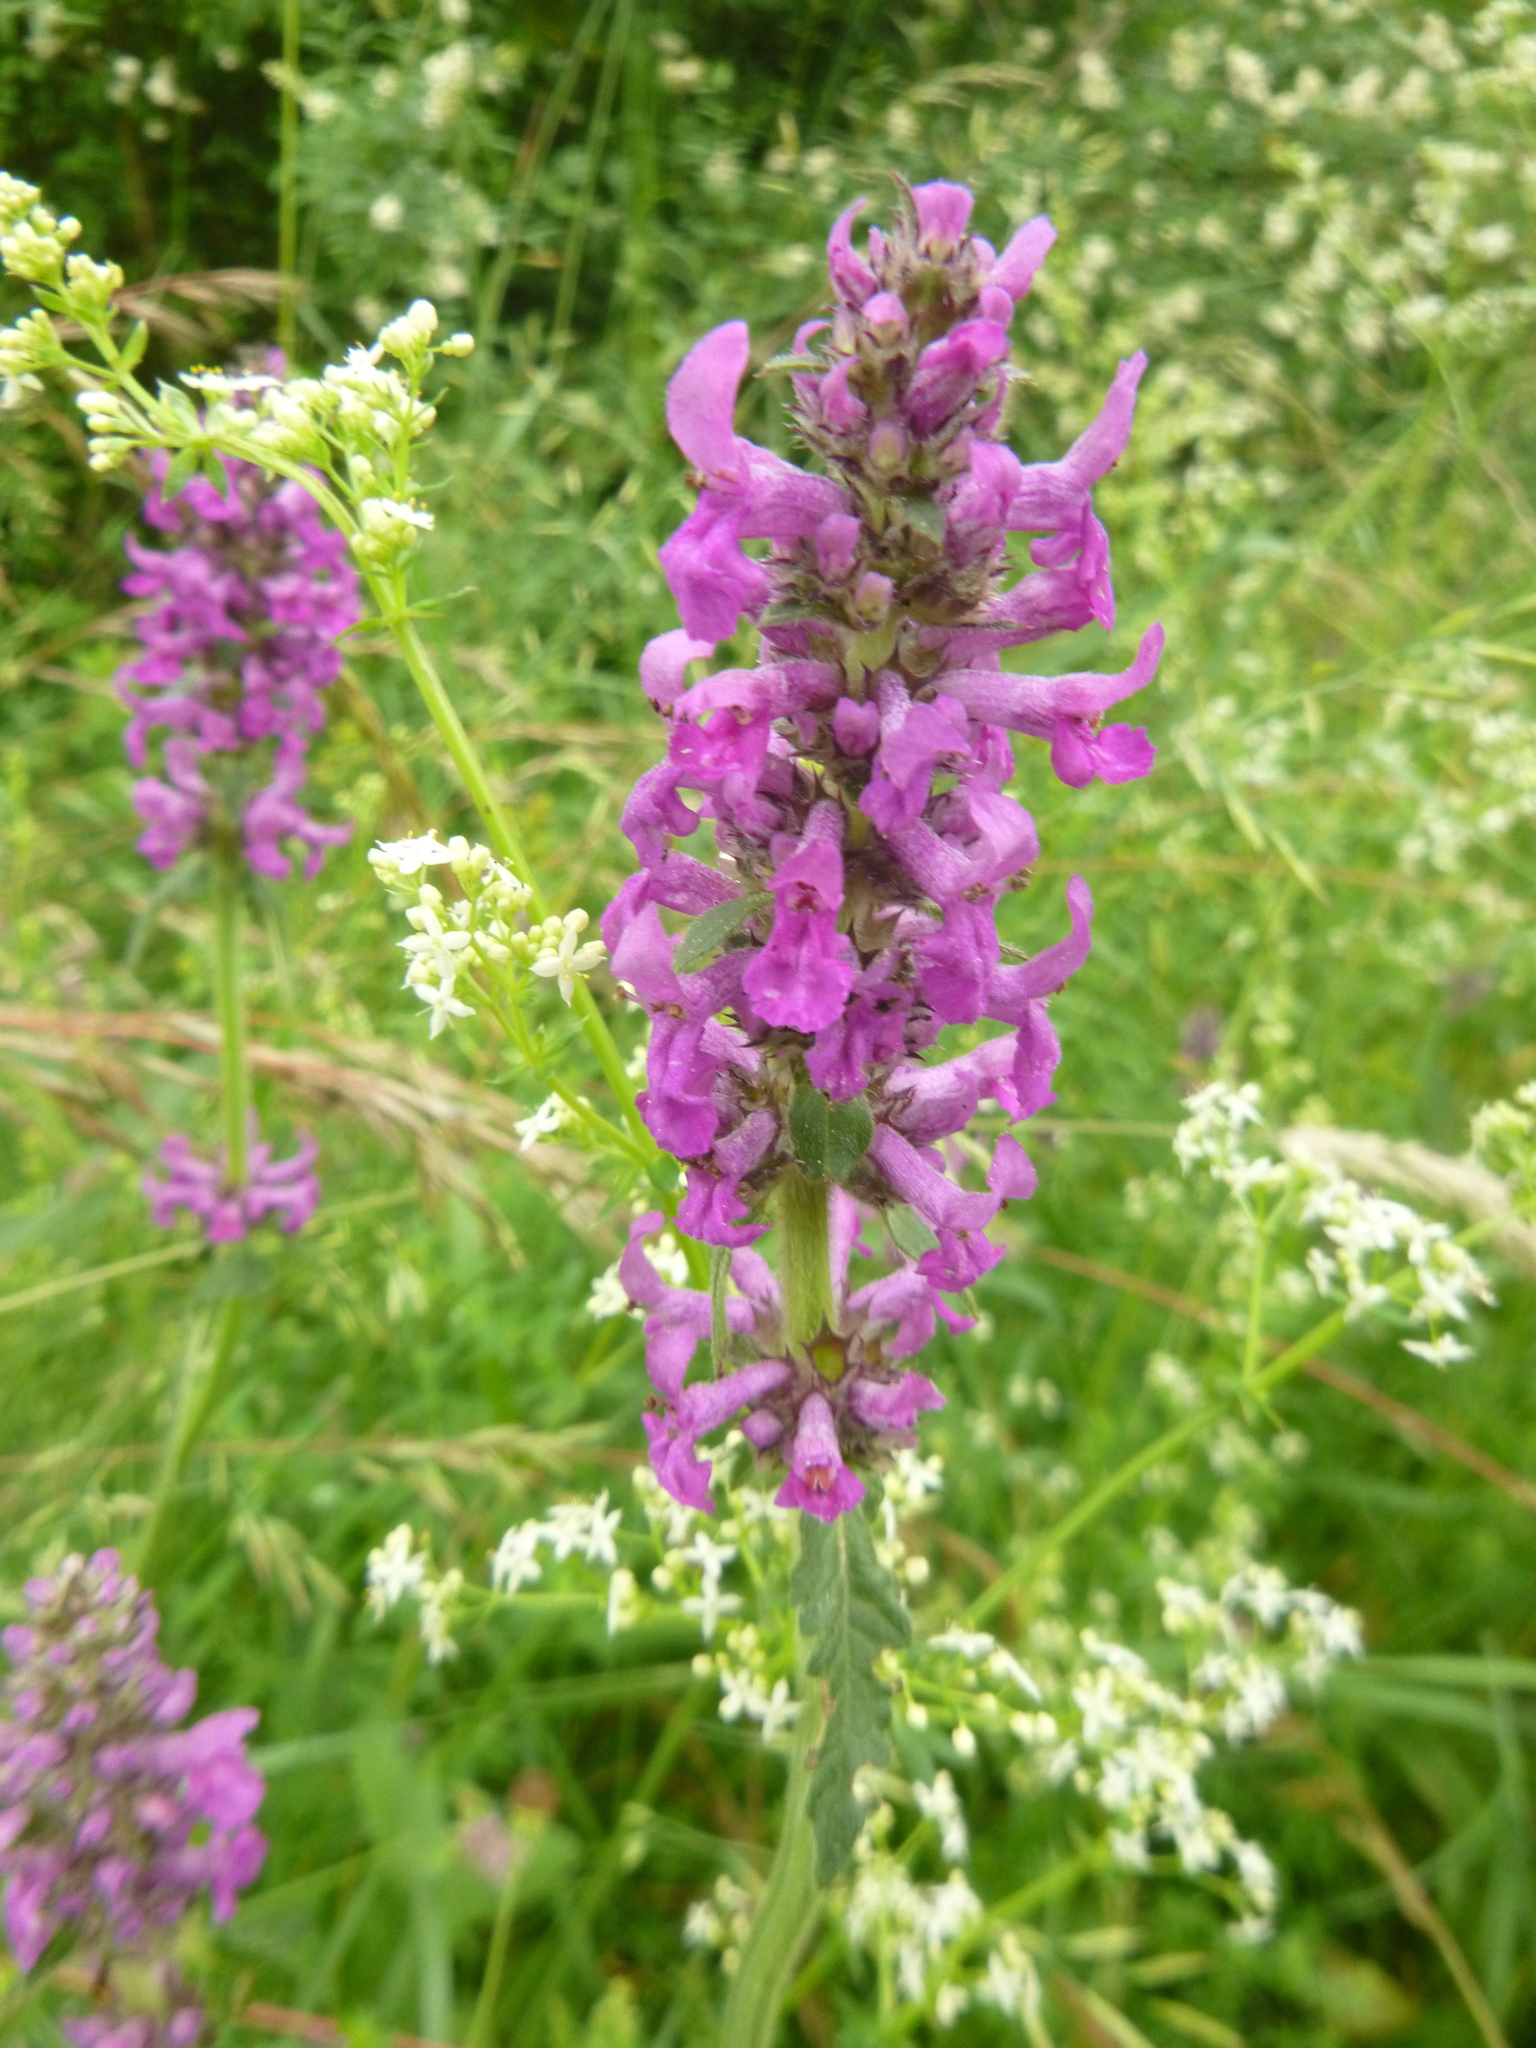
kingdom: Plantae
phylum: Tracheophyta
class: Magnoliopsida
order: Lamiales
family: Lamiaceae
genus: Betonica
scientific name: Betonica officinalis
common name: Bishop's-wort
